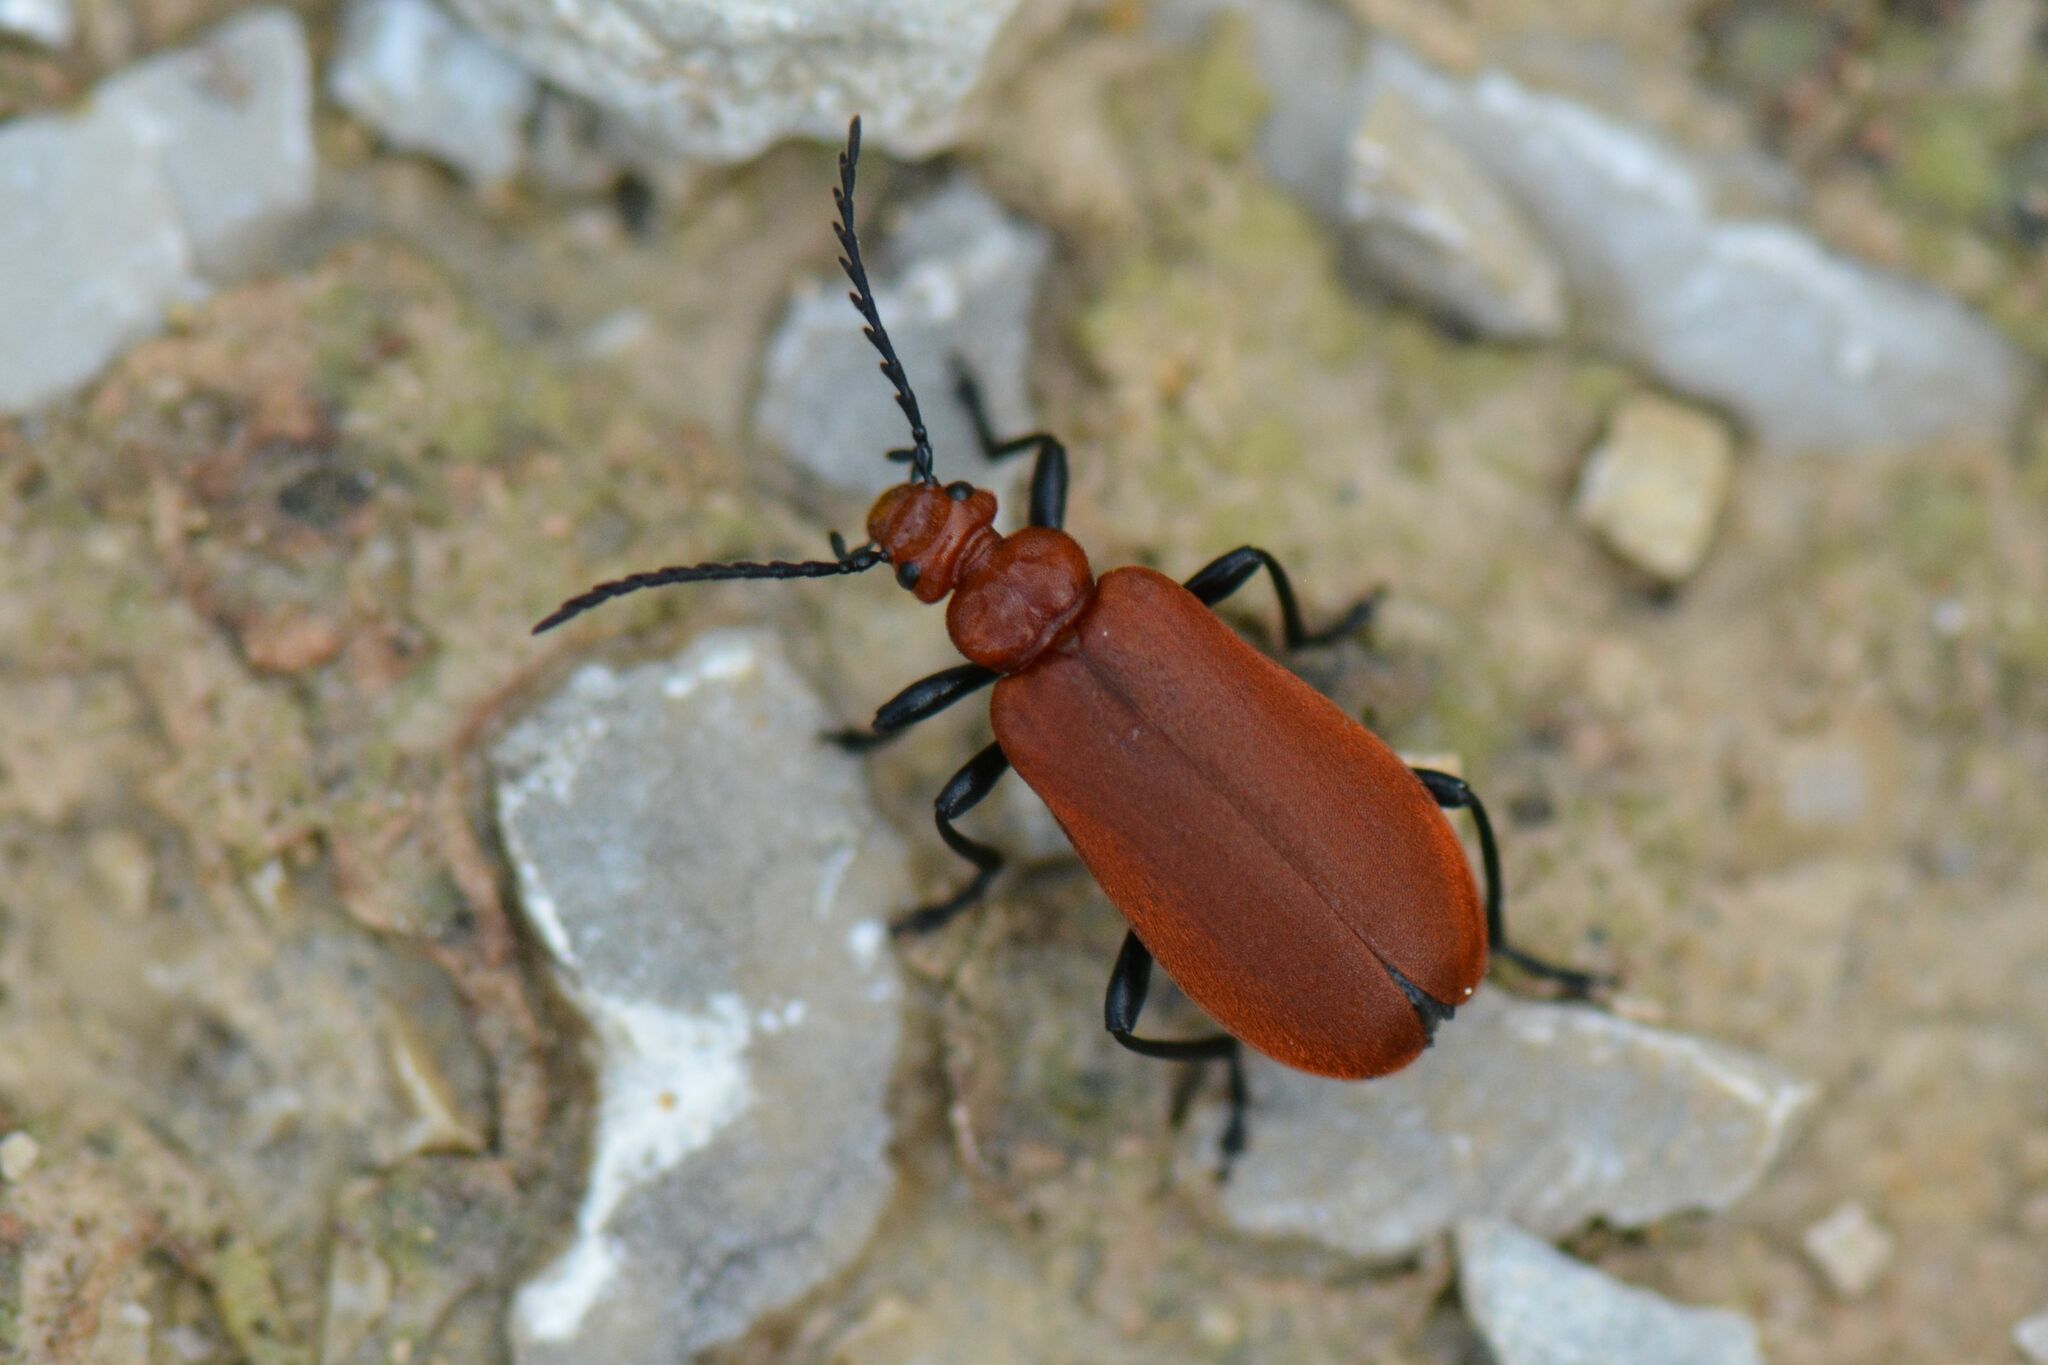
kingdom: Animalia
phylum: Arthropoda
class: Insecta
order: Coleoptera
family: Pyrochroidae
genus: Pyrochroa
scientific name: Pyrochroa serraticornis
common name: Red-headed cardinal beetle
